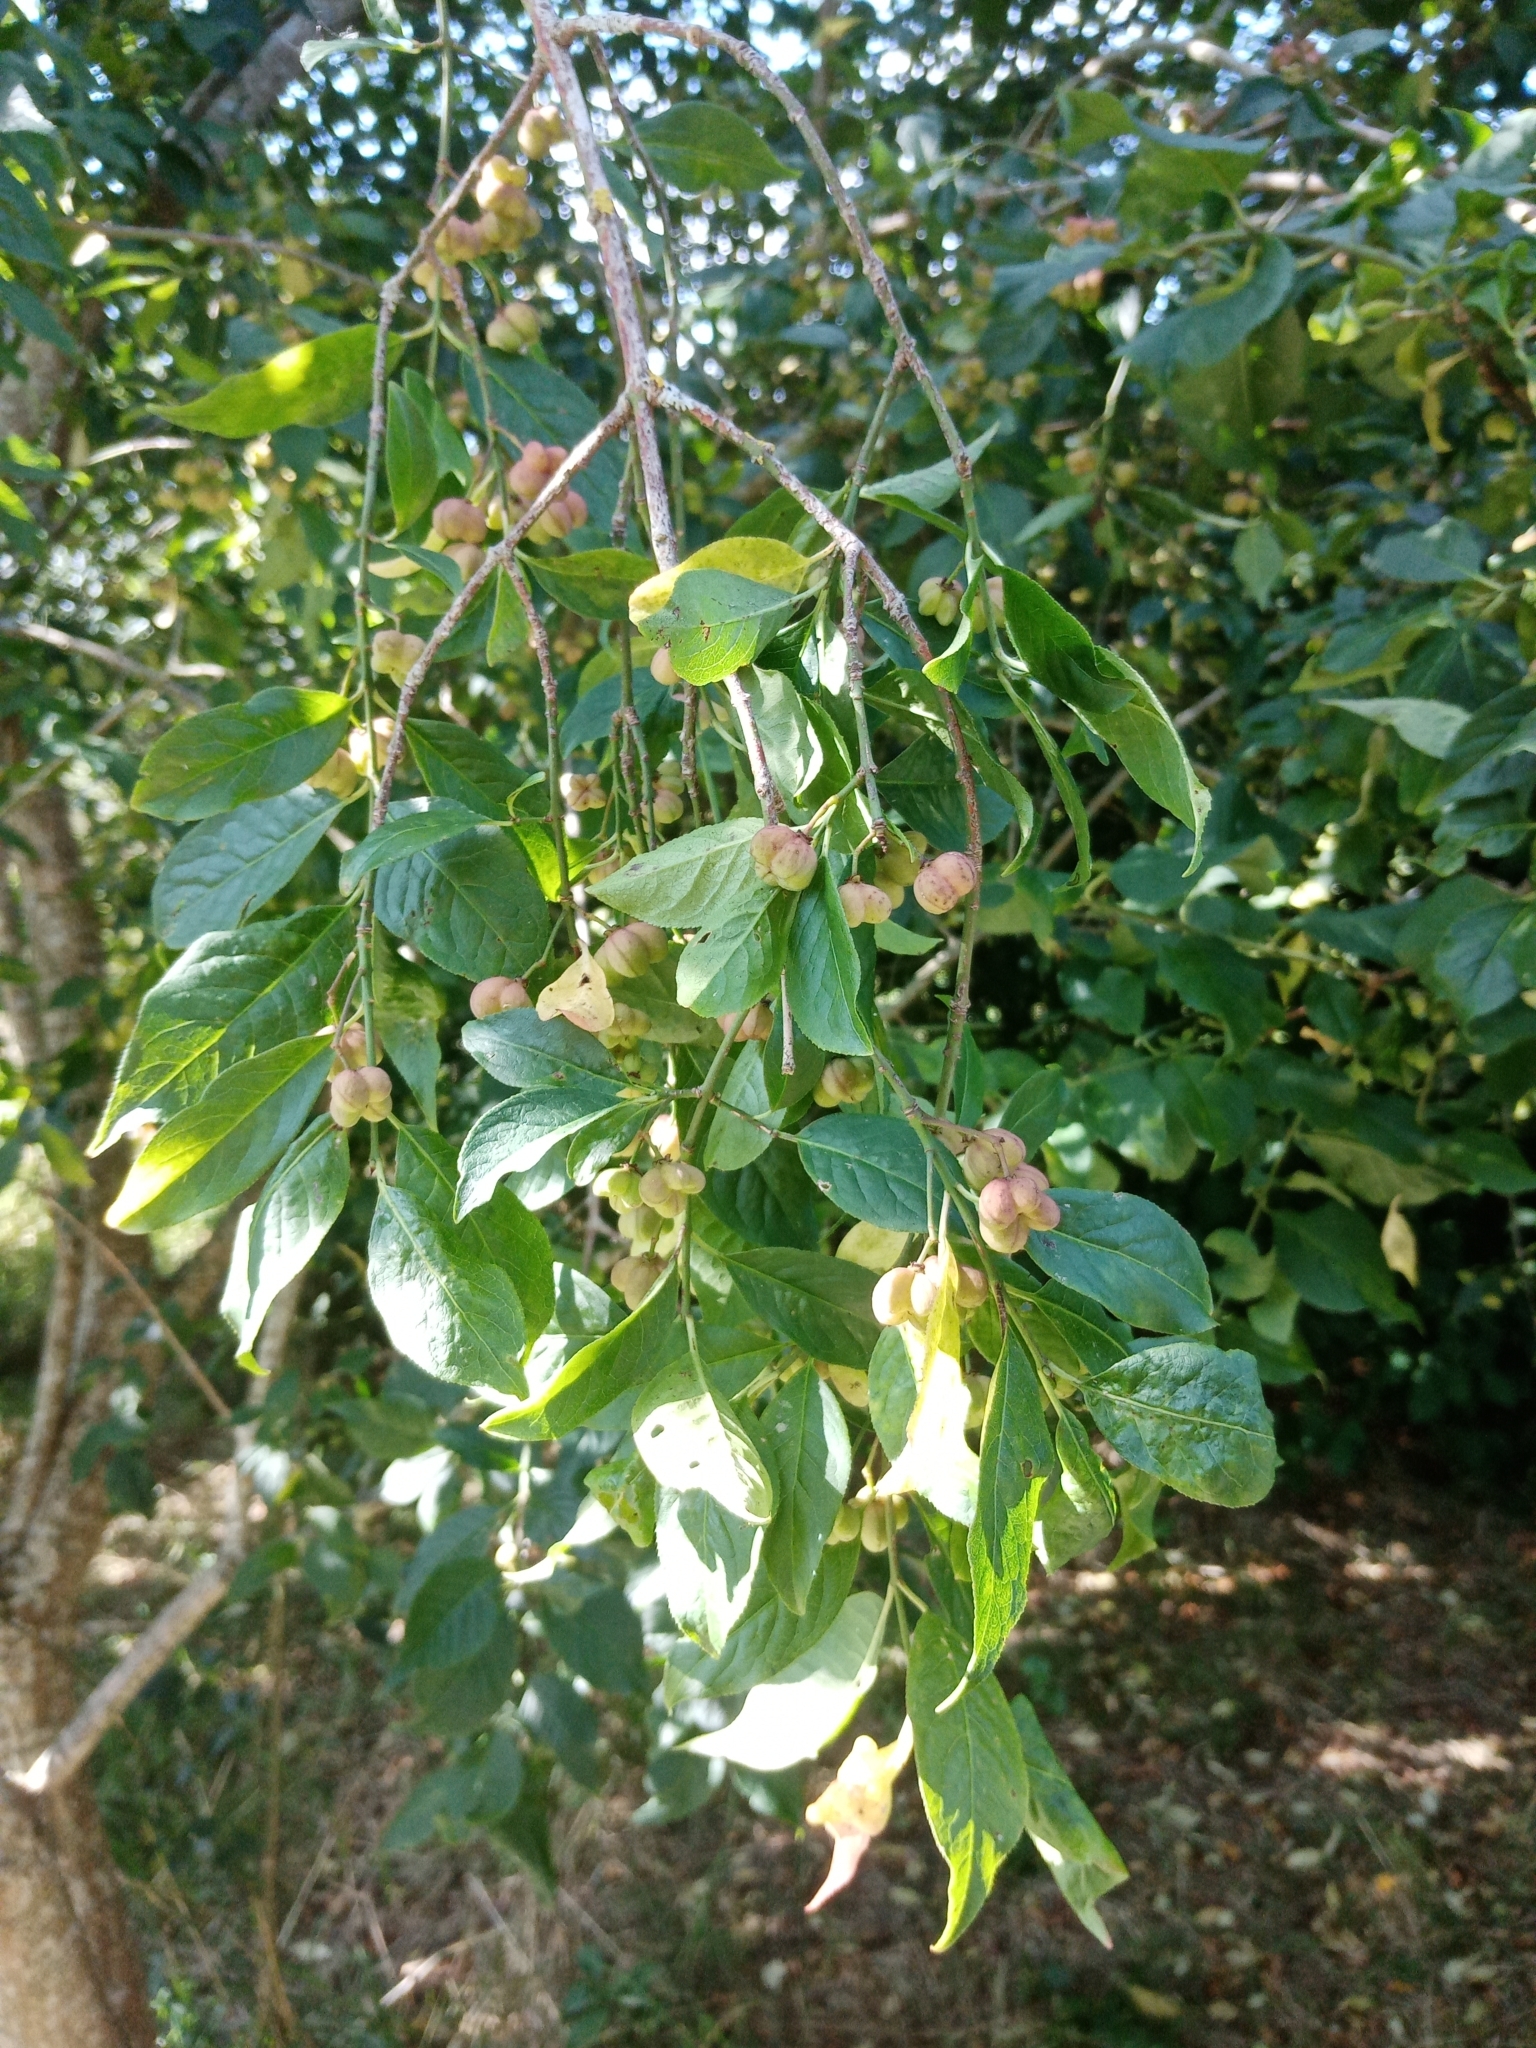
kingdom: Plantae
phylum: Tracheophyta
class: Magnoliopsida
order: Celastrales
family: Celastraceae
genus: Euonymus
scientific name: Euonymus europaeus
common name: Spindle
